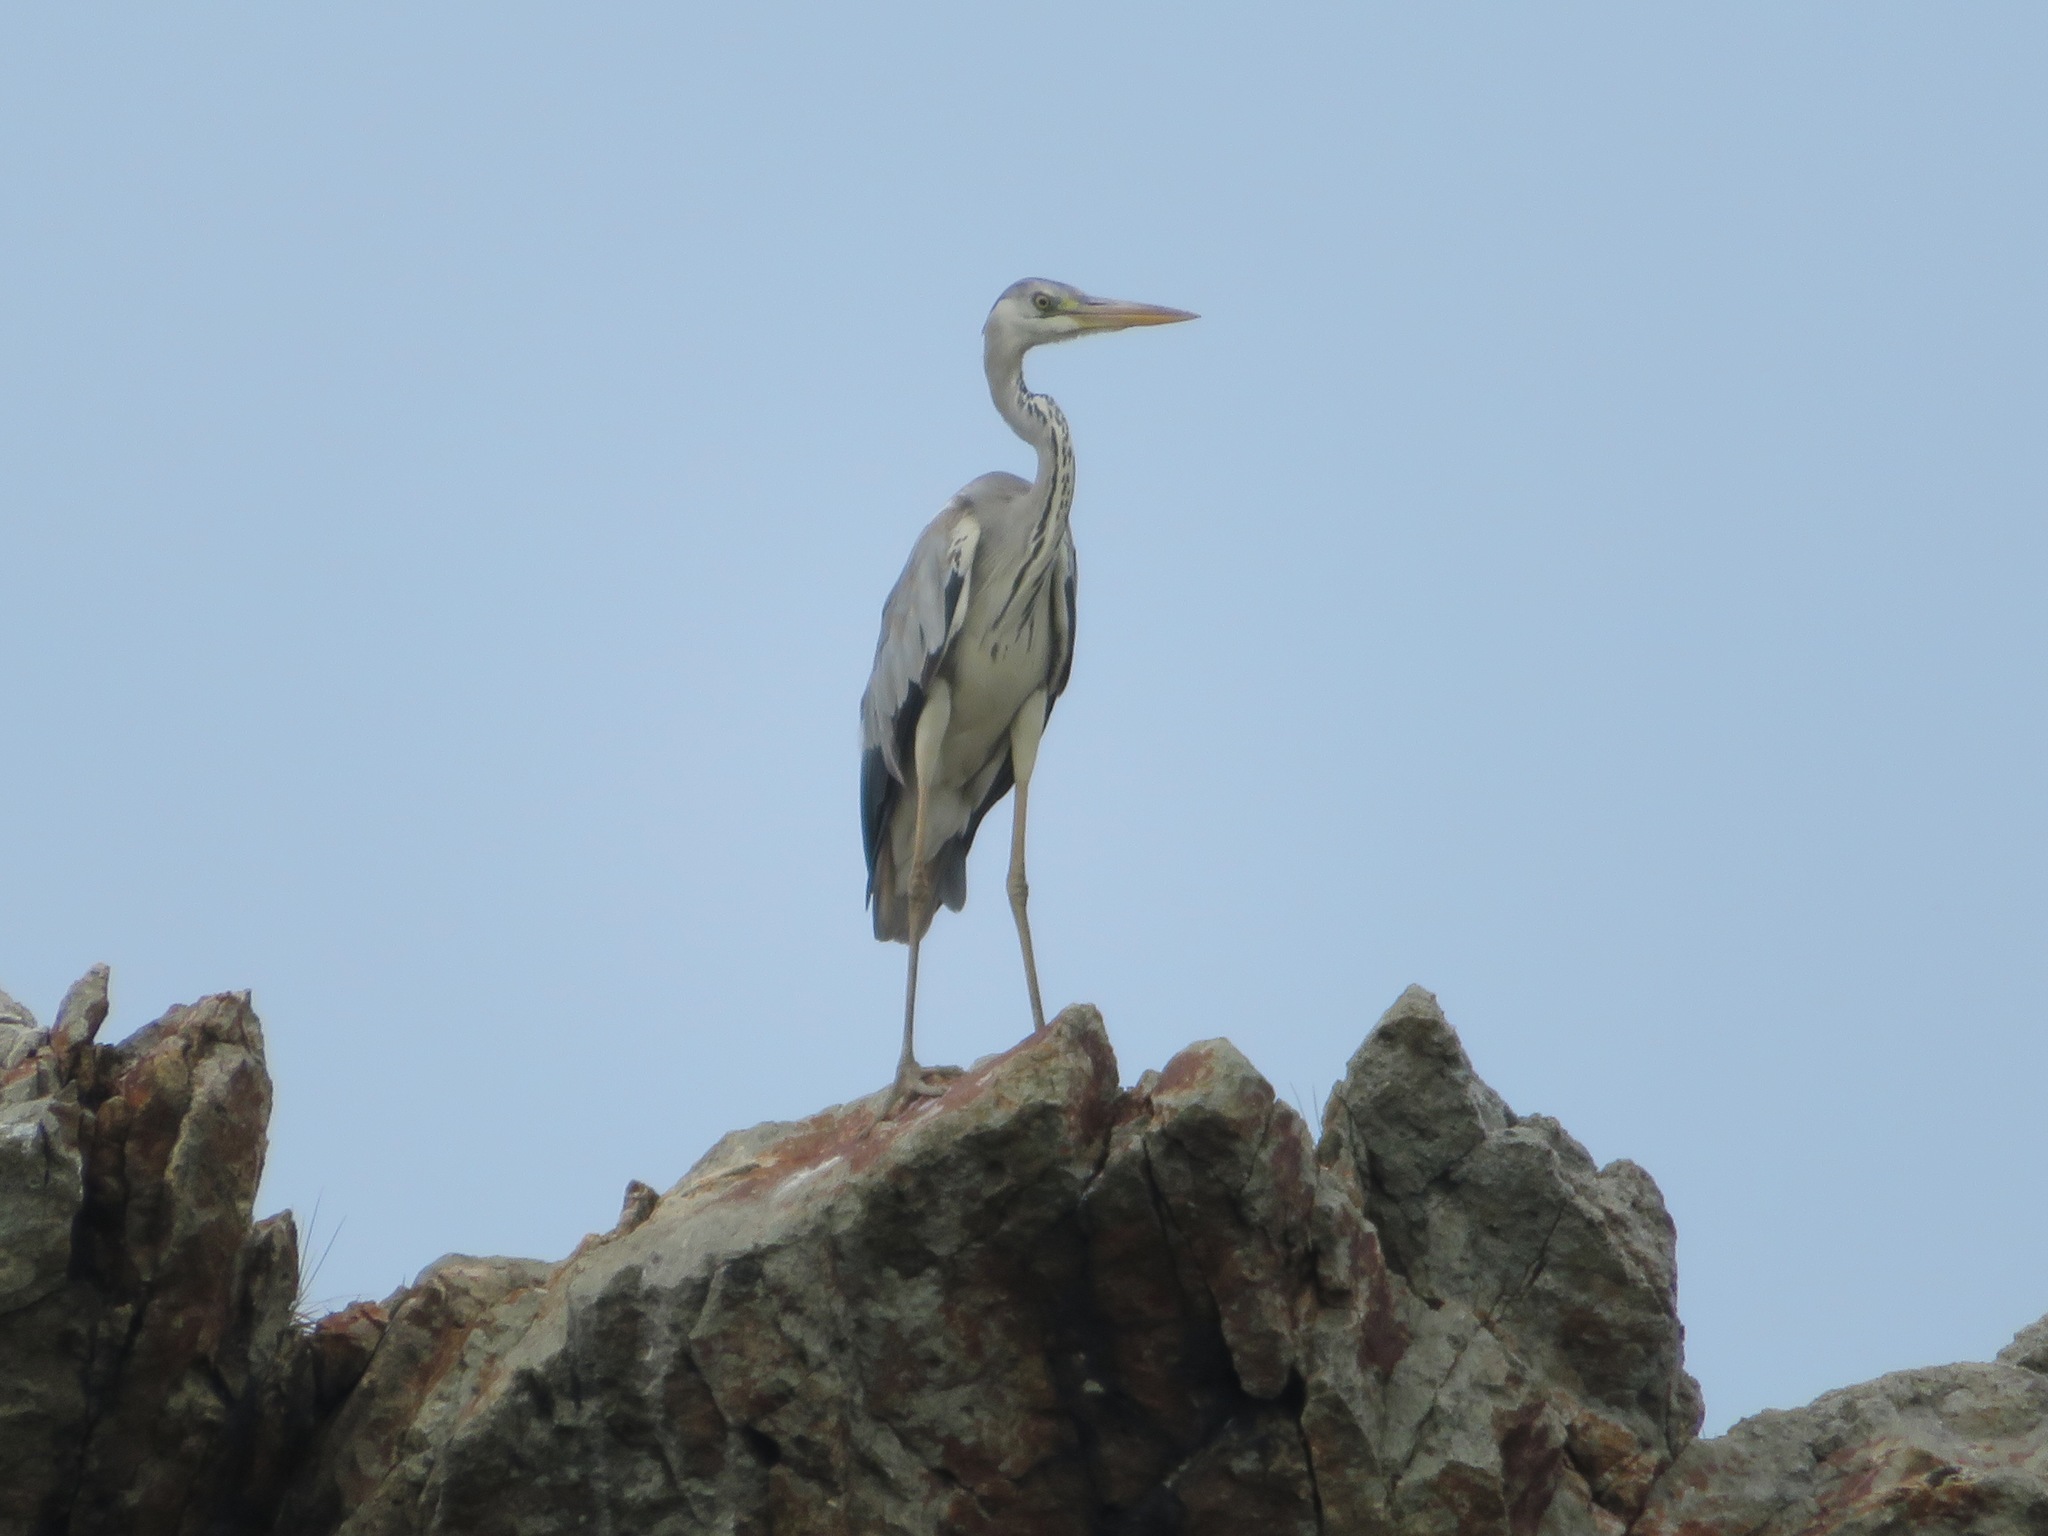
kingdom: Animalia
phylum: Chordata
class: Aves
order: Pelecaniformes
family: Ardeidae
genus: Ardea
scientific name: Ardea cinerea
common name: Grey heron
